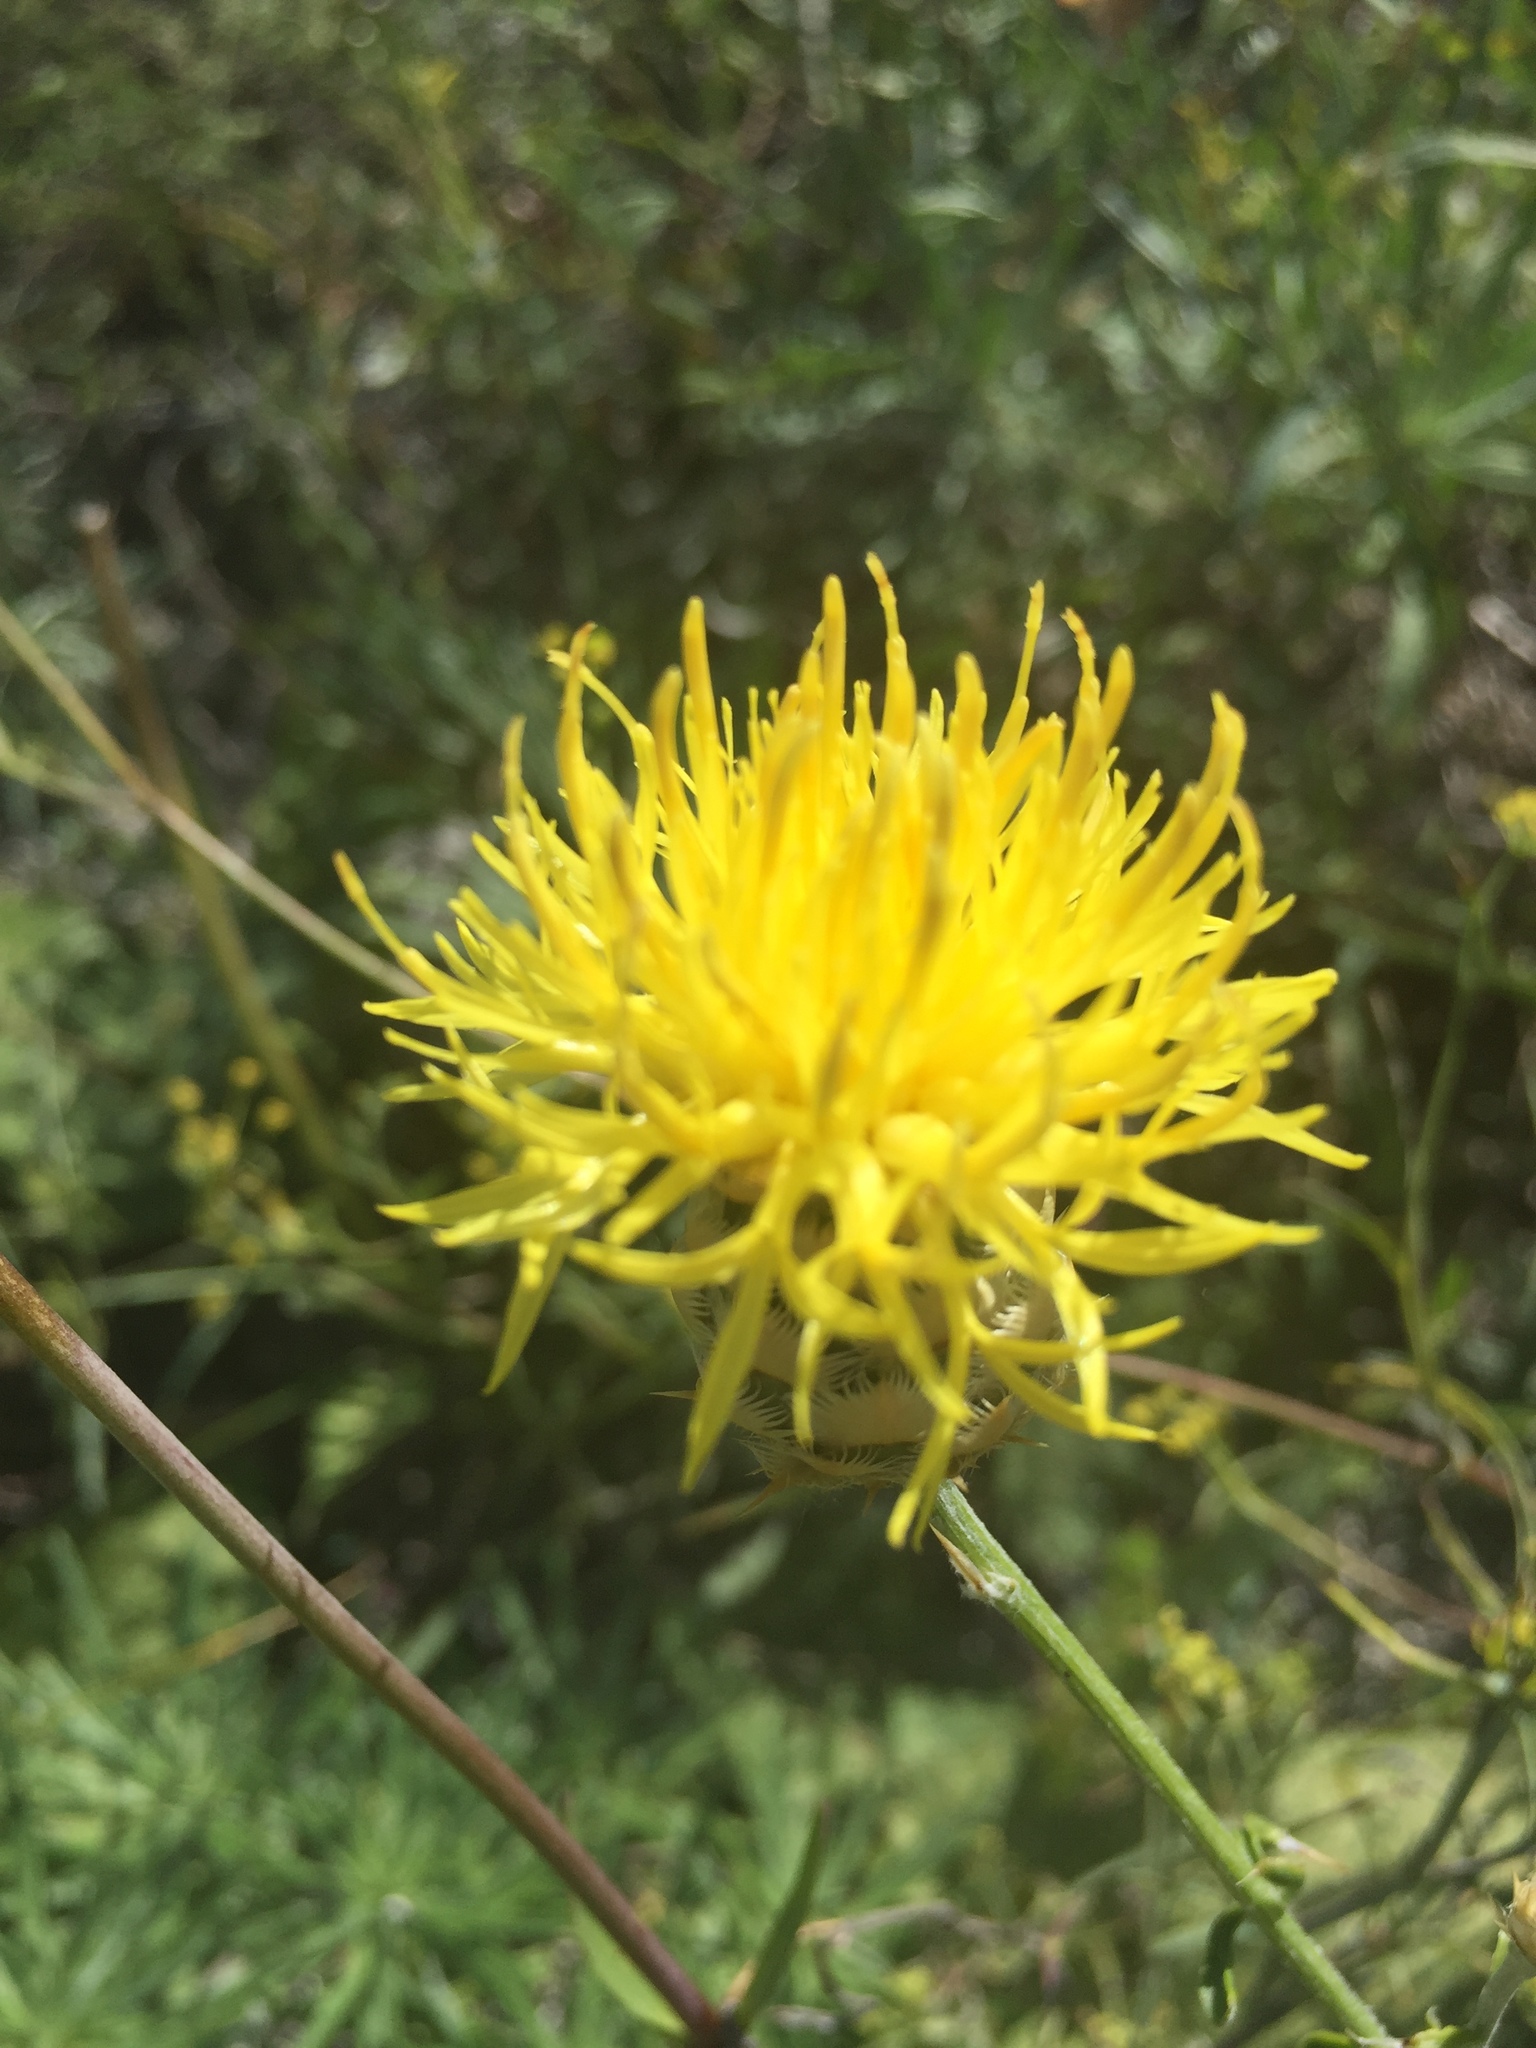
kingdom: Plantae
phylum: Tracheophyta
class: Magnoliopsida
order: Asterales
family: Asteraceae
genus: Centaurea
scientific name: Centaurea orientalis
